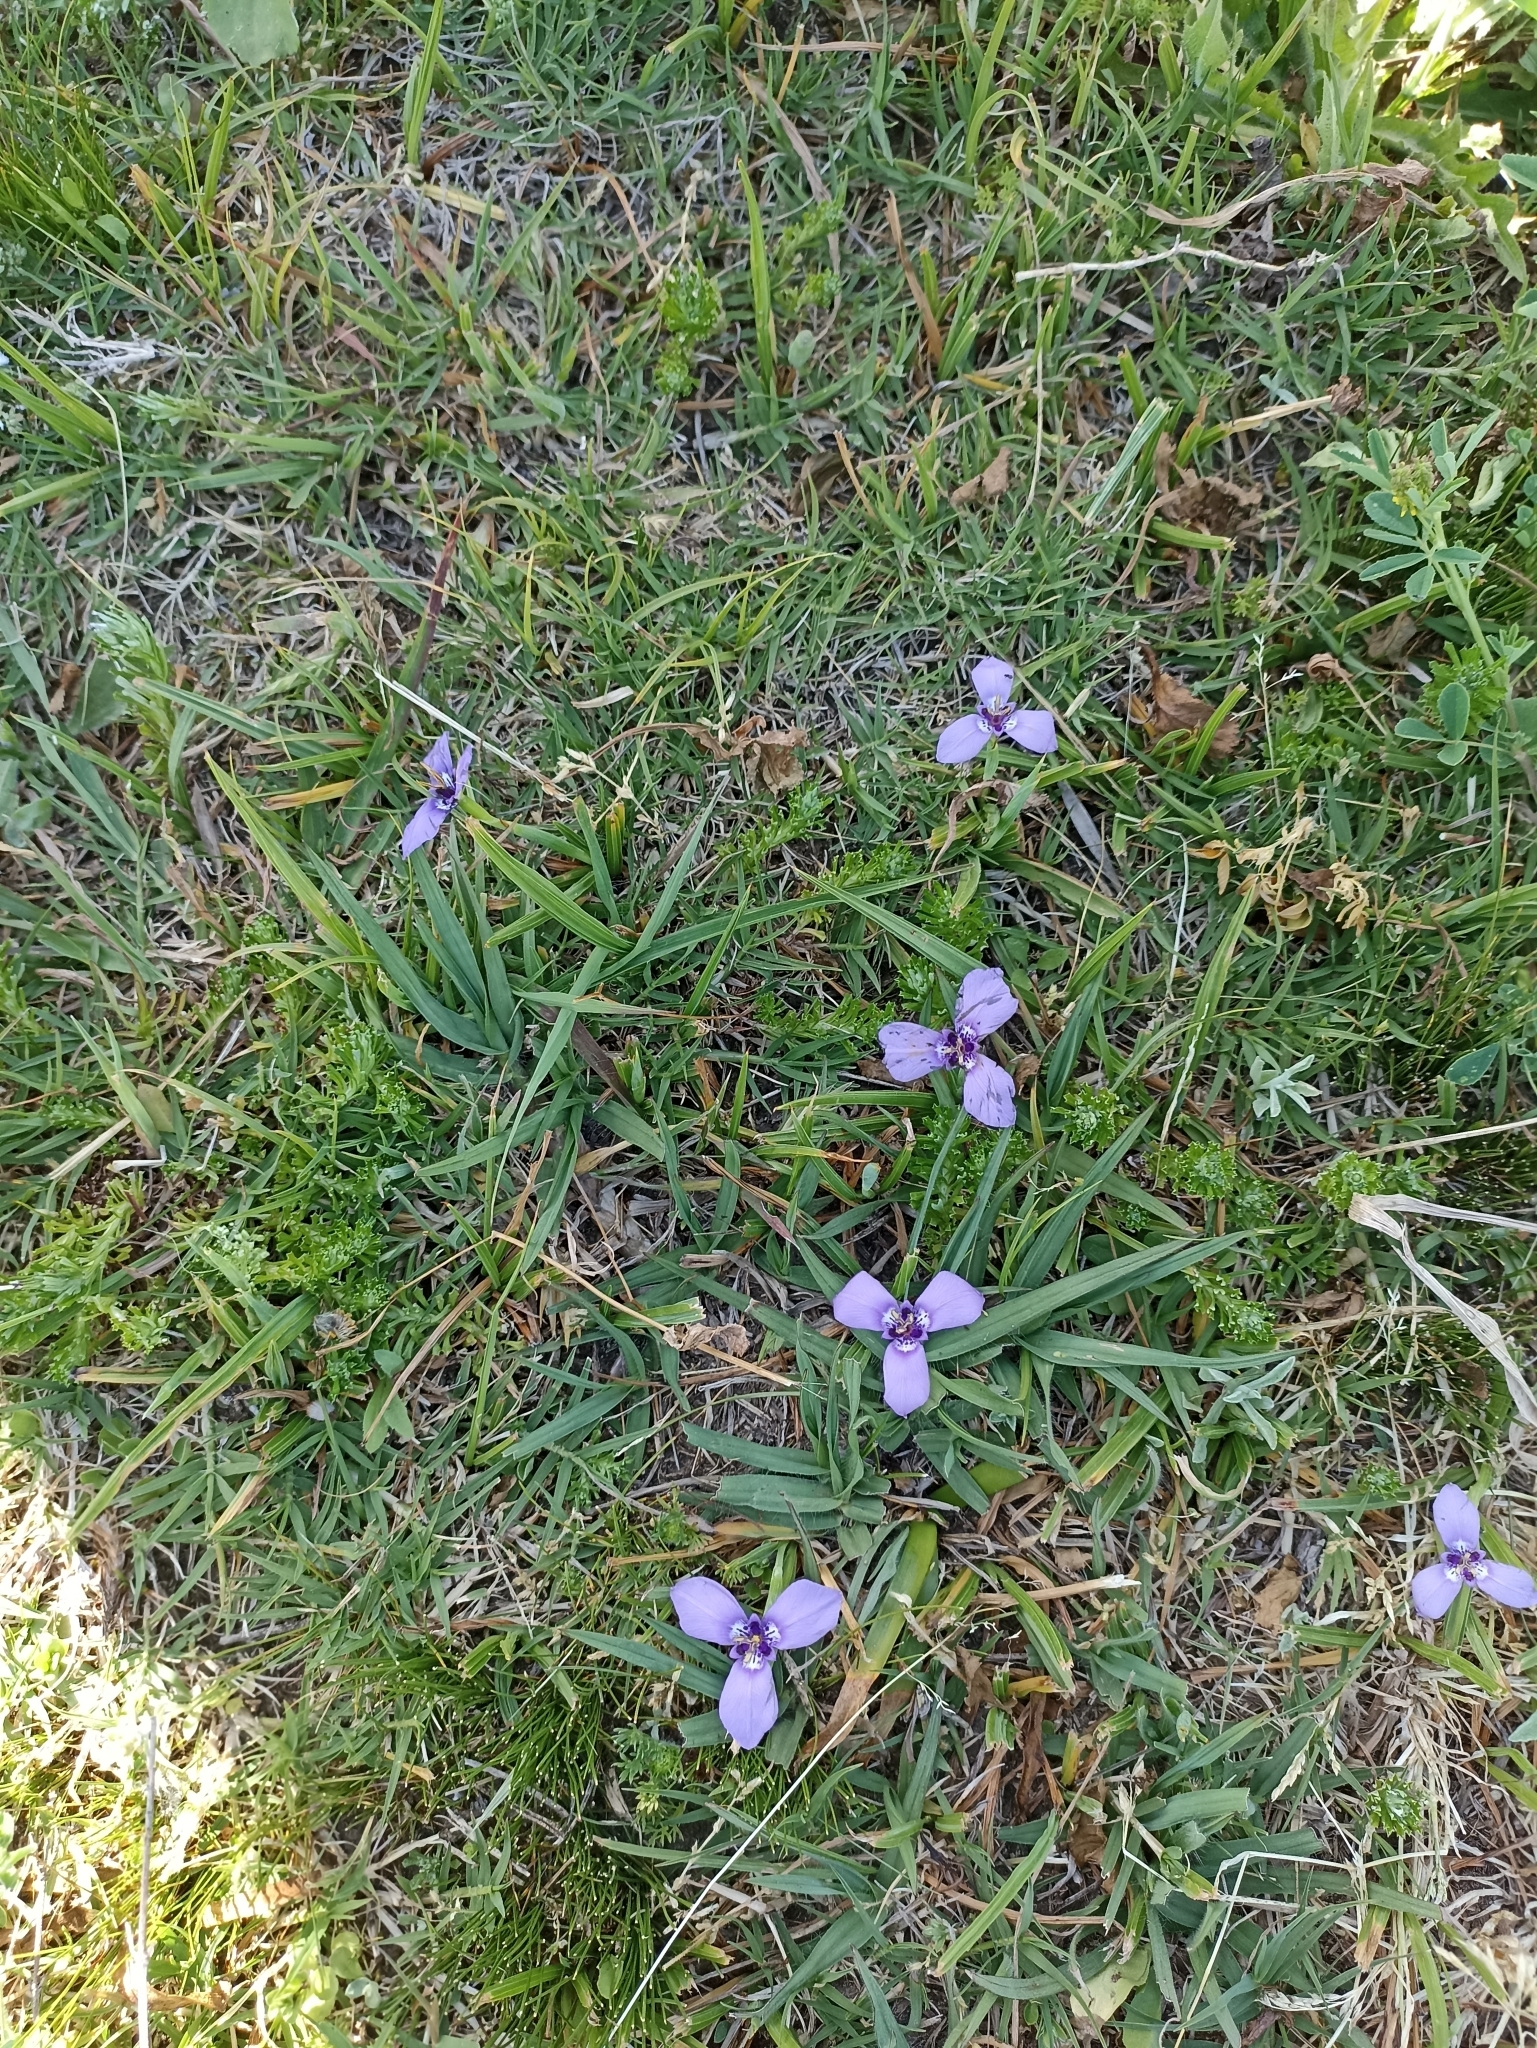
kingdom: Plantae
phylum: Tracheophyta
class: Liliopsida
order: Asparagales
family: Iridaceae
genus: Herbertia
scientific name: Herbertia lahue
